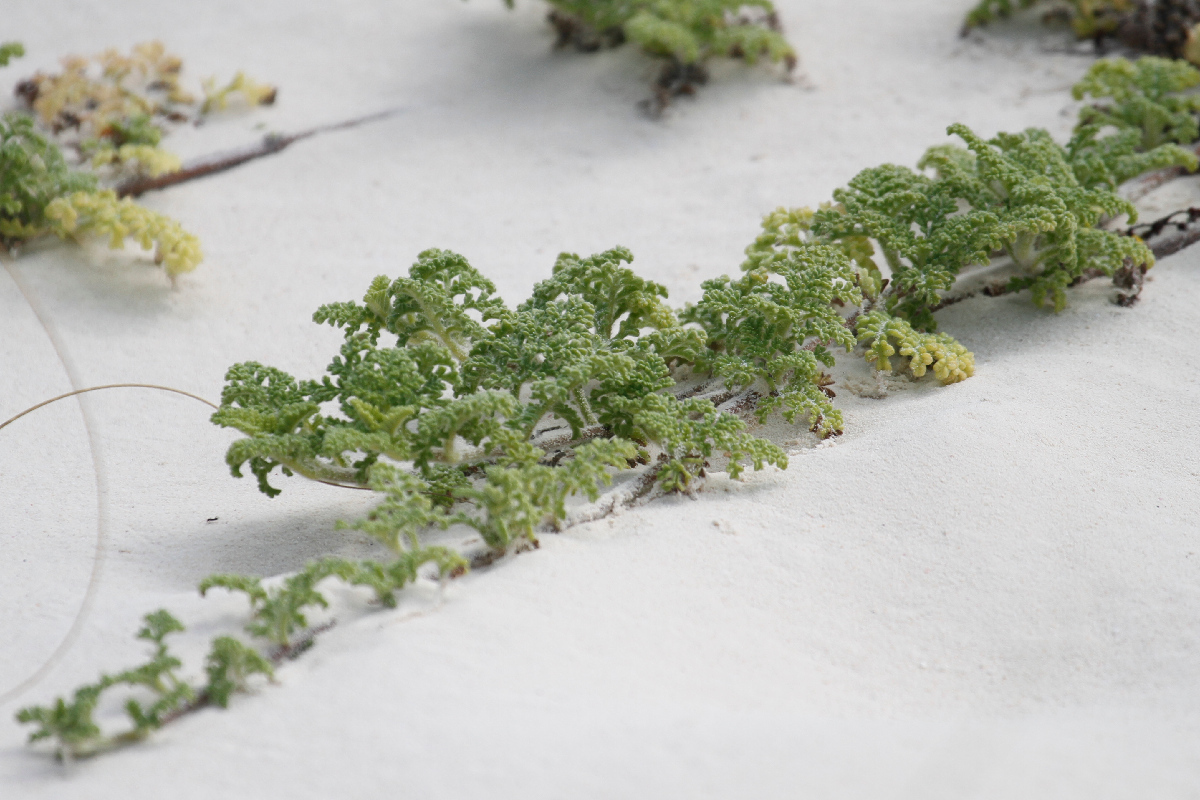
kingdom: Plantae
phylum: Tracheophyta
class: Magnoliopsida
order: Asterales
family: Asteraceae
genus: Ambrosia
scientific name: Ambrosia hispida
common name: Coastal ragweed
